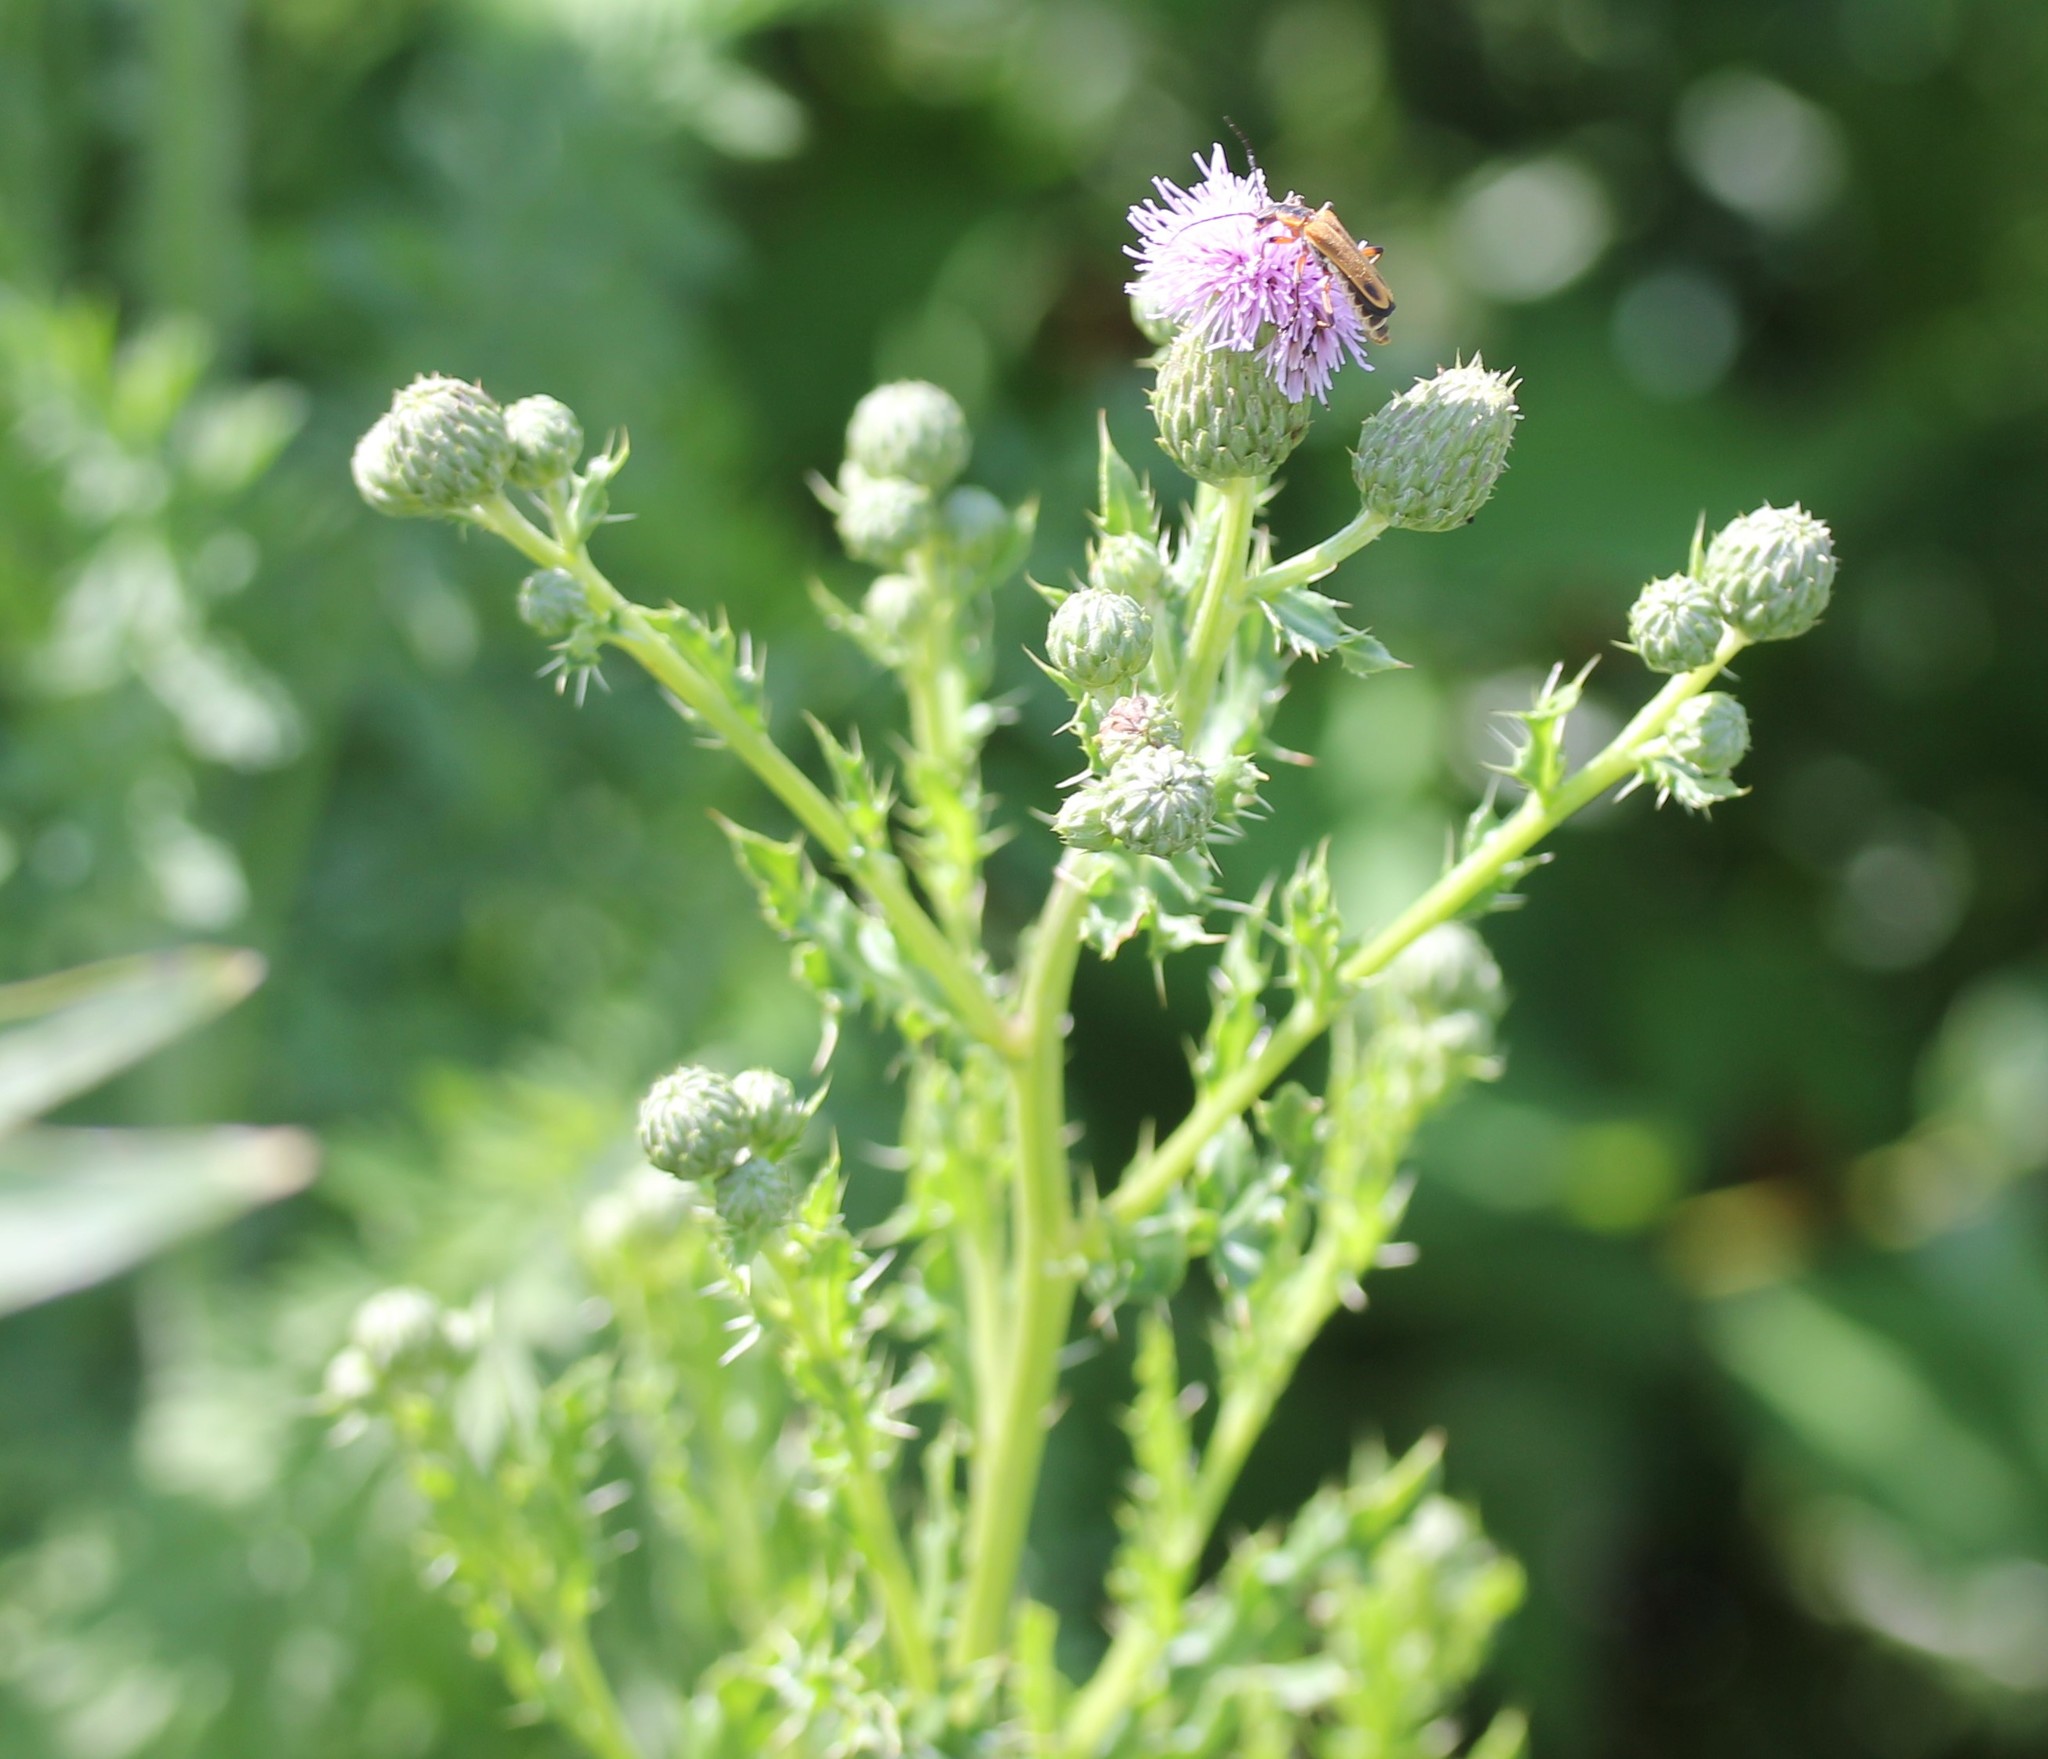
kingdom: Plantae
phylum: Tracheophyta
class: Magnoliopsida
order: Asterales
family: Asteraceae
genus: Cirsium
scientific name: Cirsium arvense
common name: Creeping thistle
